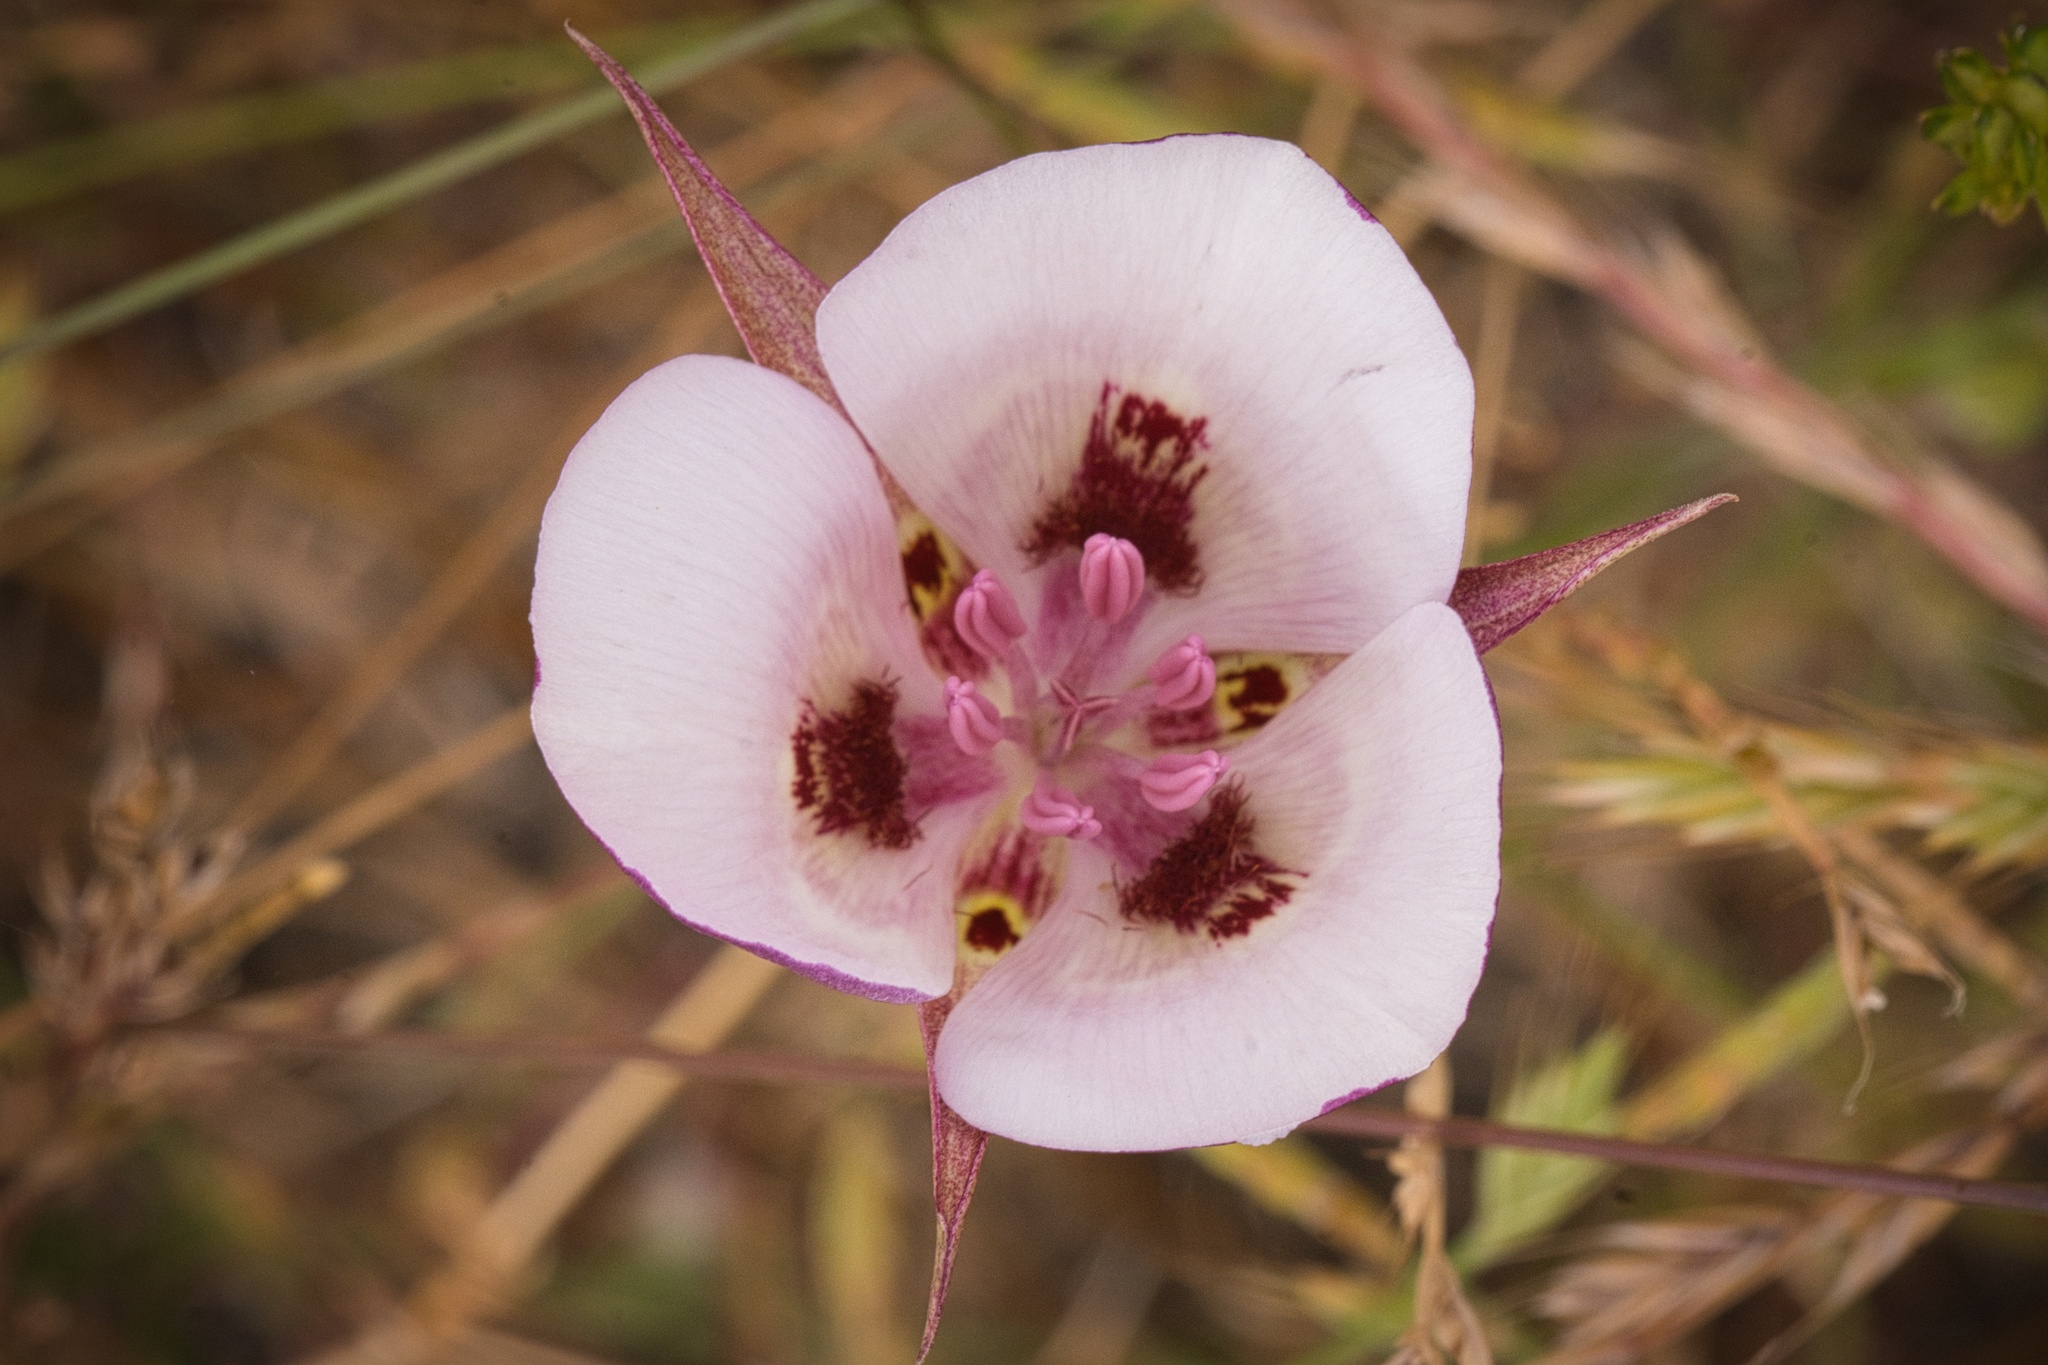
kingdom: Plantae
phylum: Tracheophyta
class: Liliopsida
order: Liliales
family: Liliaceae
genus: Calochortus
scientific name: Calochortus argillosus
